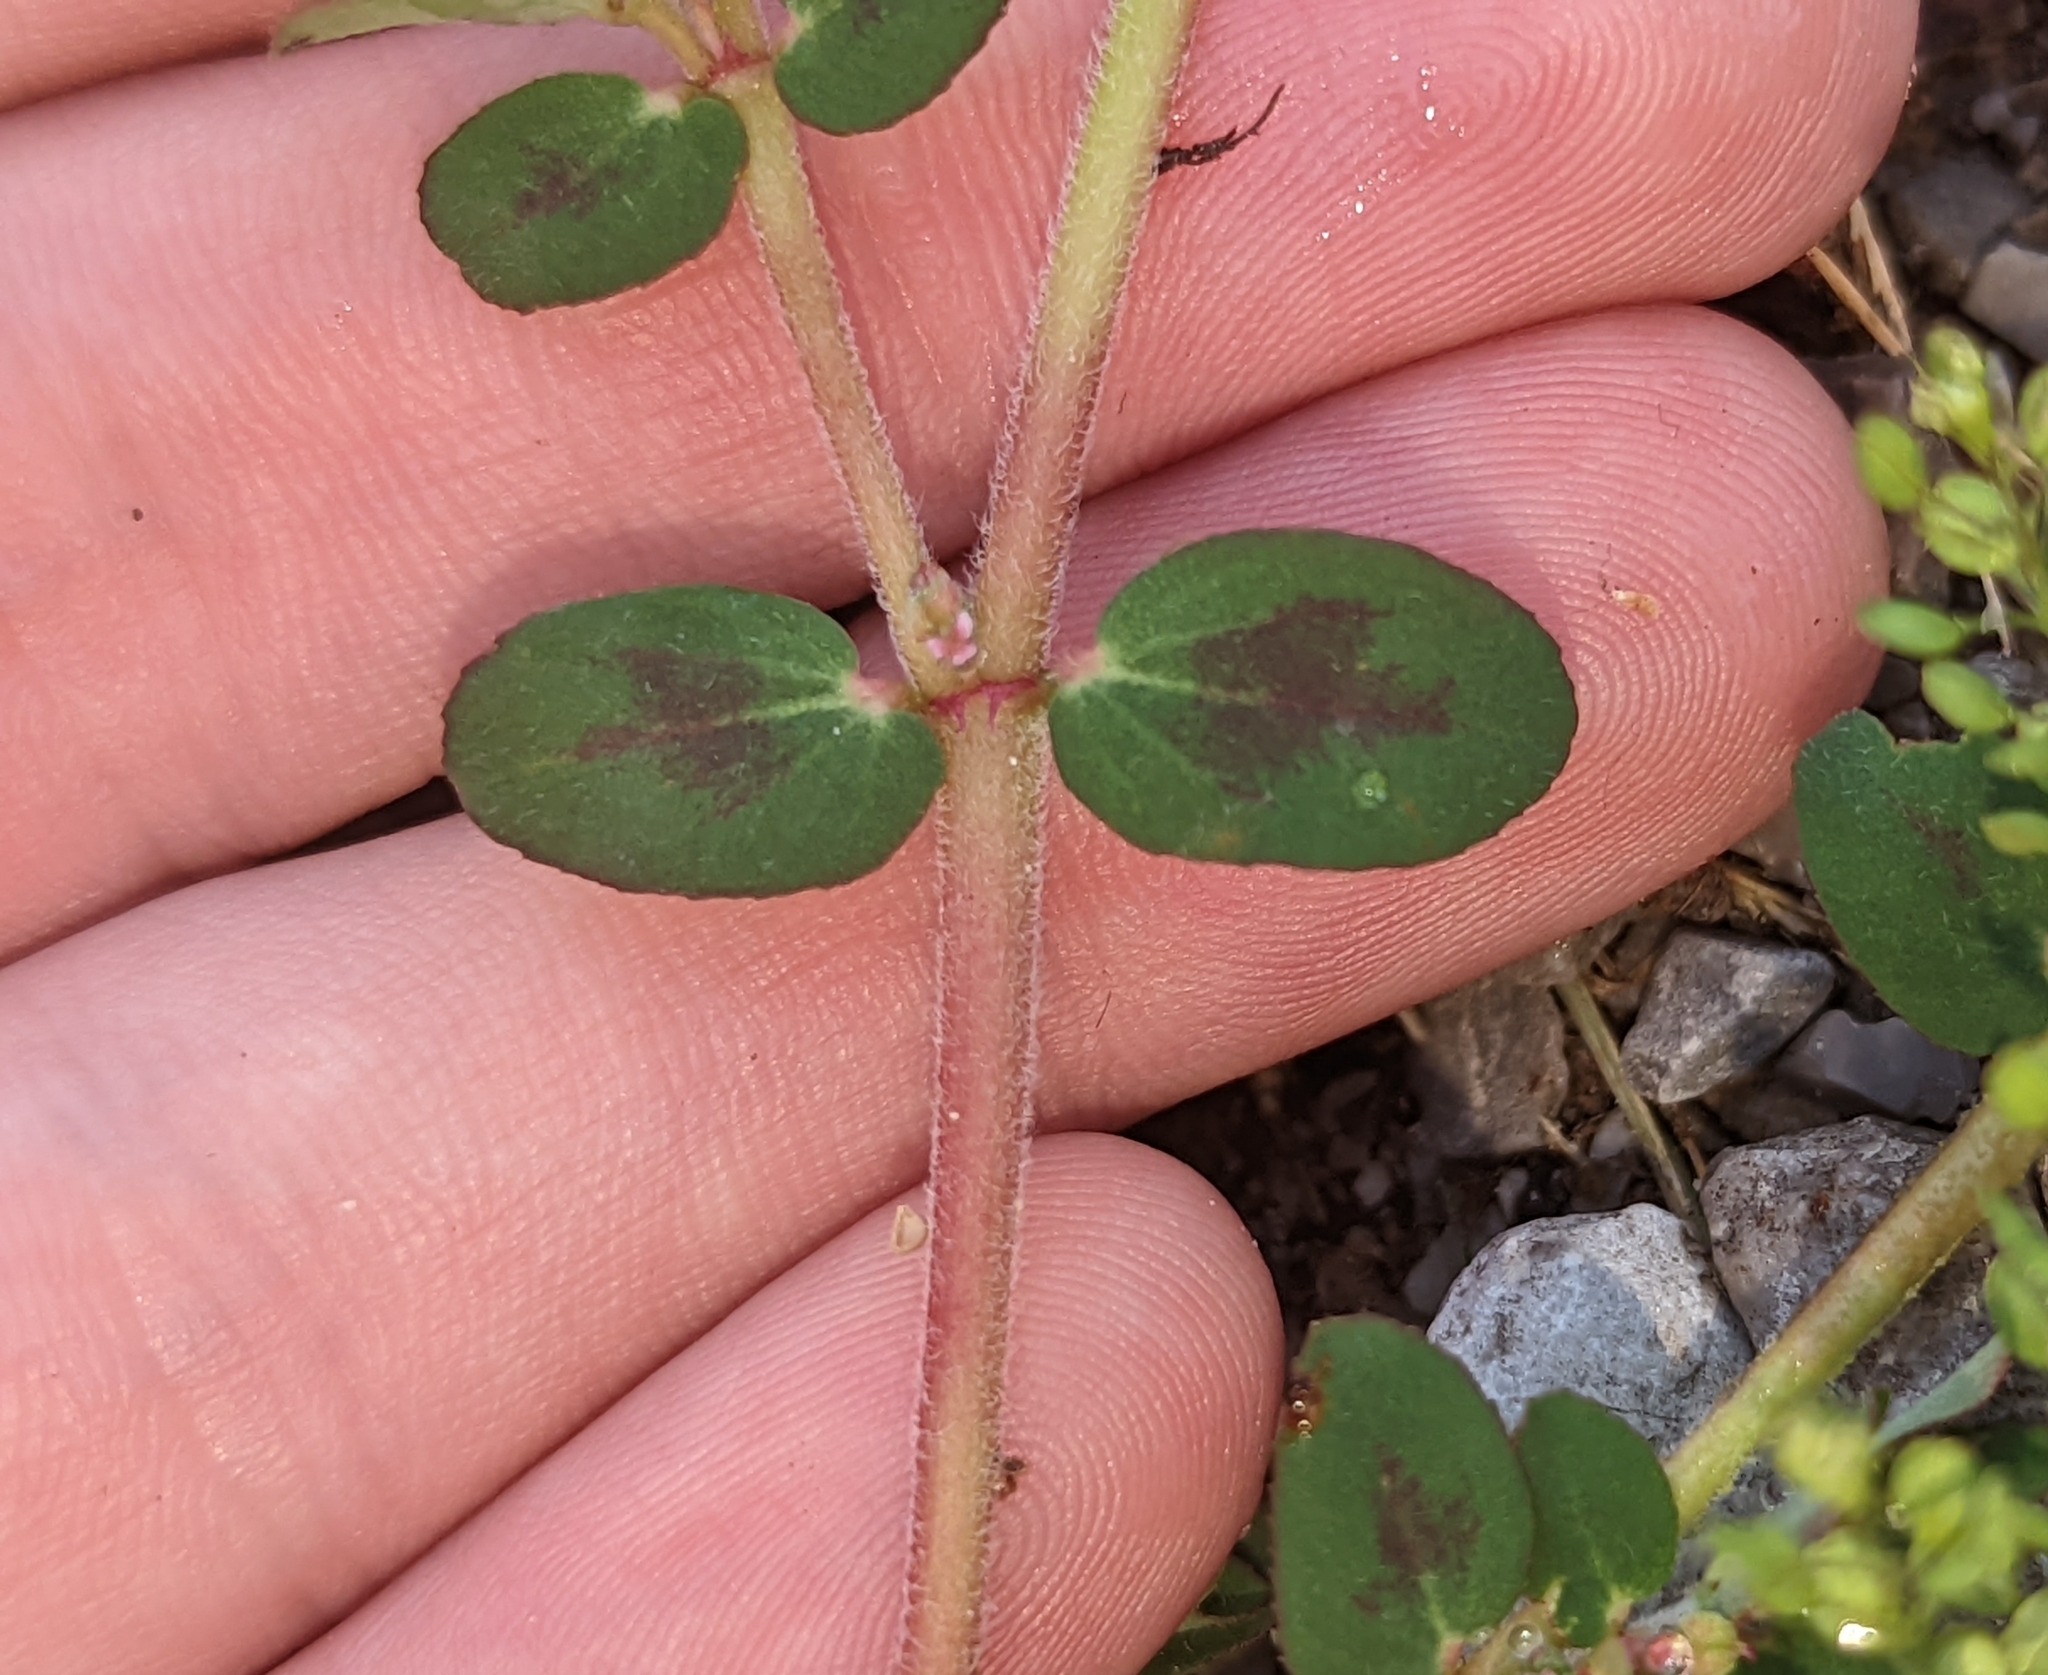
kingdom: Plantae
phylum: Tracheophyta
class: Magnoliopsida
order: Malpighiales
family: Euphorbiaceae
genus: Euphorbia
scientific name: Euphorbia humistrata
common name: Hairy spreading spurge
